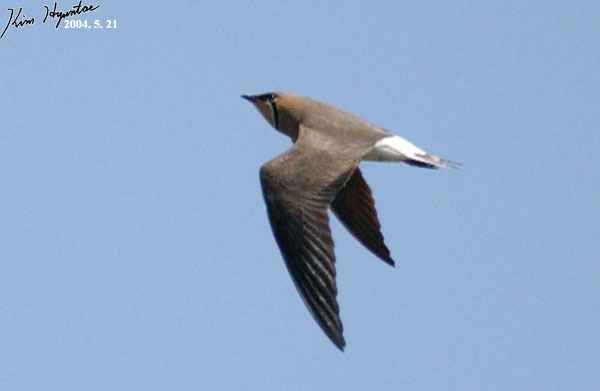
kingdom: Animalia
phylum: Chordata
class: Aves
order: Charadriiformes
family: Glareolidae
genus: Glareola
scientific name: Glareola maldivarum
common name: Oriental pratincole
